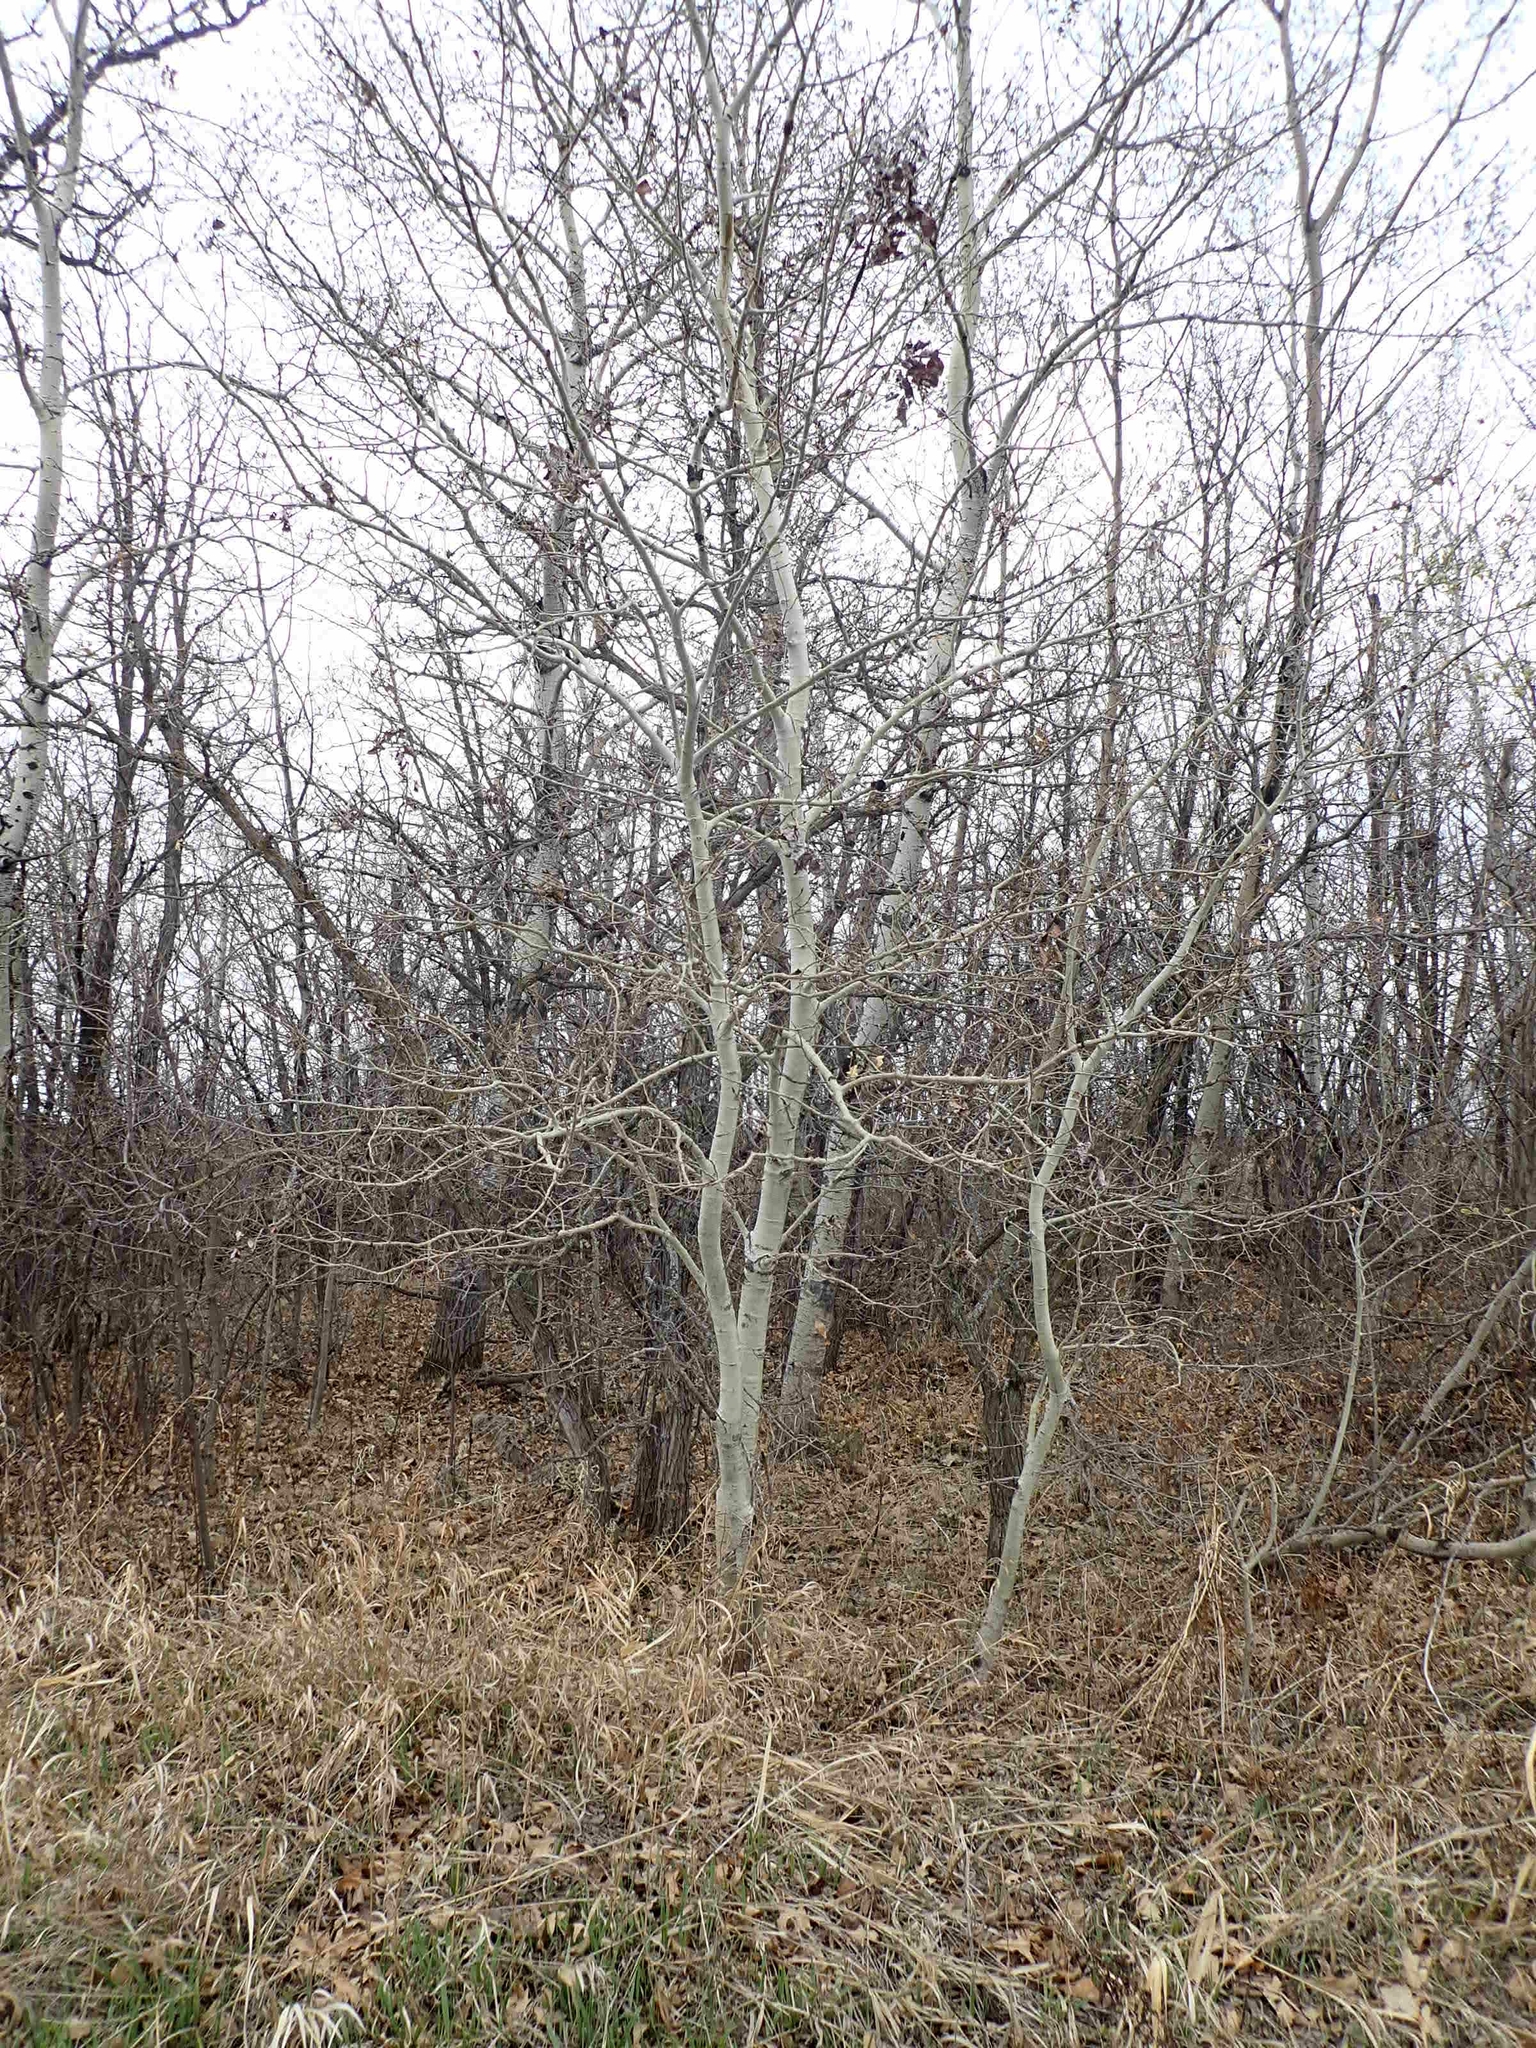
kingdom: Plantae
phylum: Tracheophyta
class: Magnoliopsida
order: Malpighiales
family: Salicaceae
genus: Populus
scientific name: Populus tremuloides
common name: Quaking aspen
